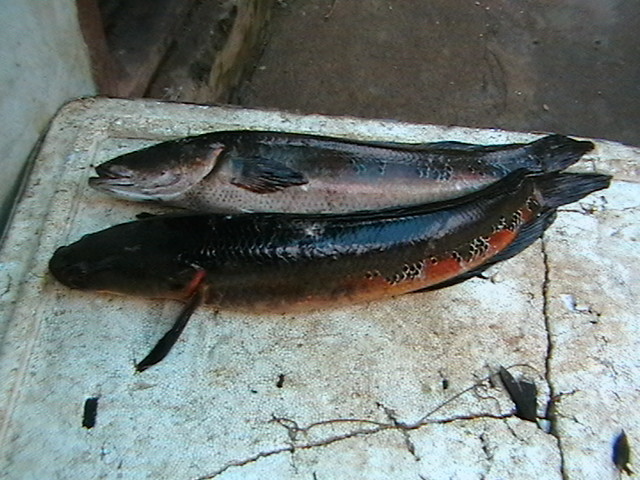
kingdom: Animalia
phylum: Chordata
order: Perciformes
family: Channidae
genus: Channa
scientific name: Channa marulius
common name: Giant snakehead
